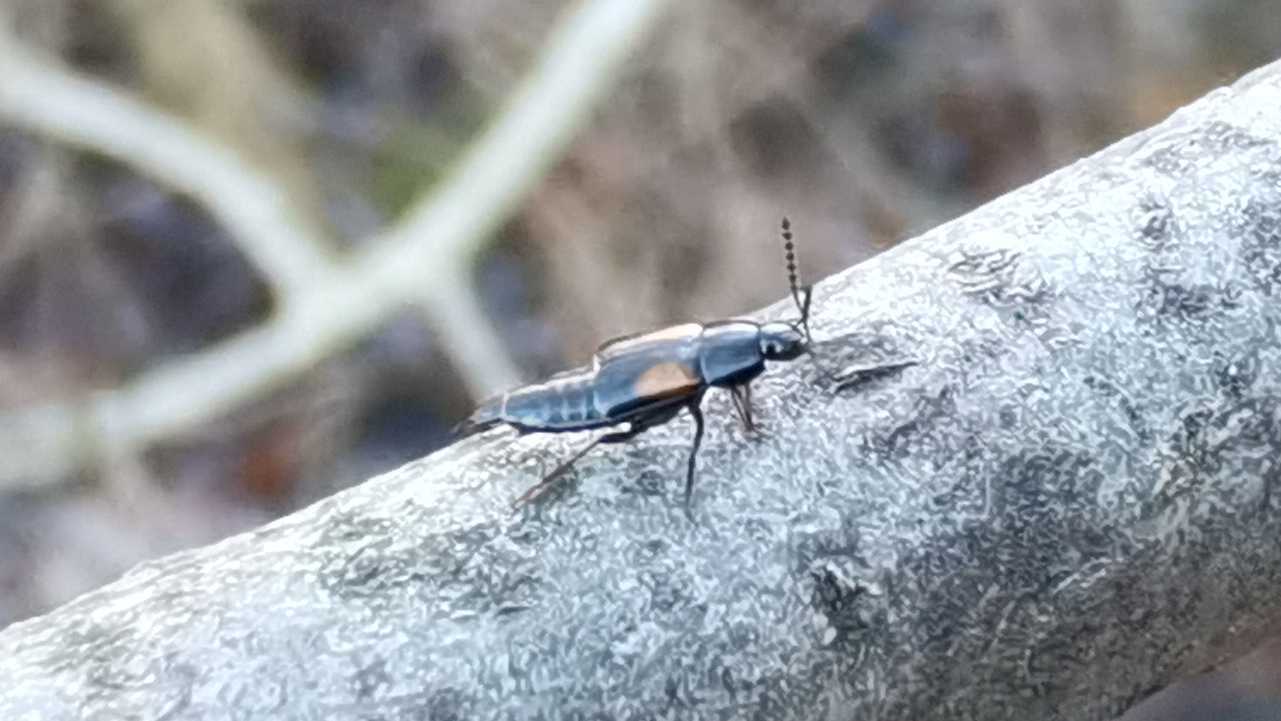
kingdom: Animalia
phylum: Arthropoda
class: Insecta
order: Coleoptera
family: Staphylinidae
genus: Tachinus
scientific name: Tachinus subterraneus
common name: Staph beetle
